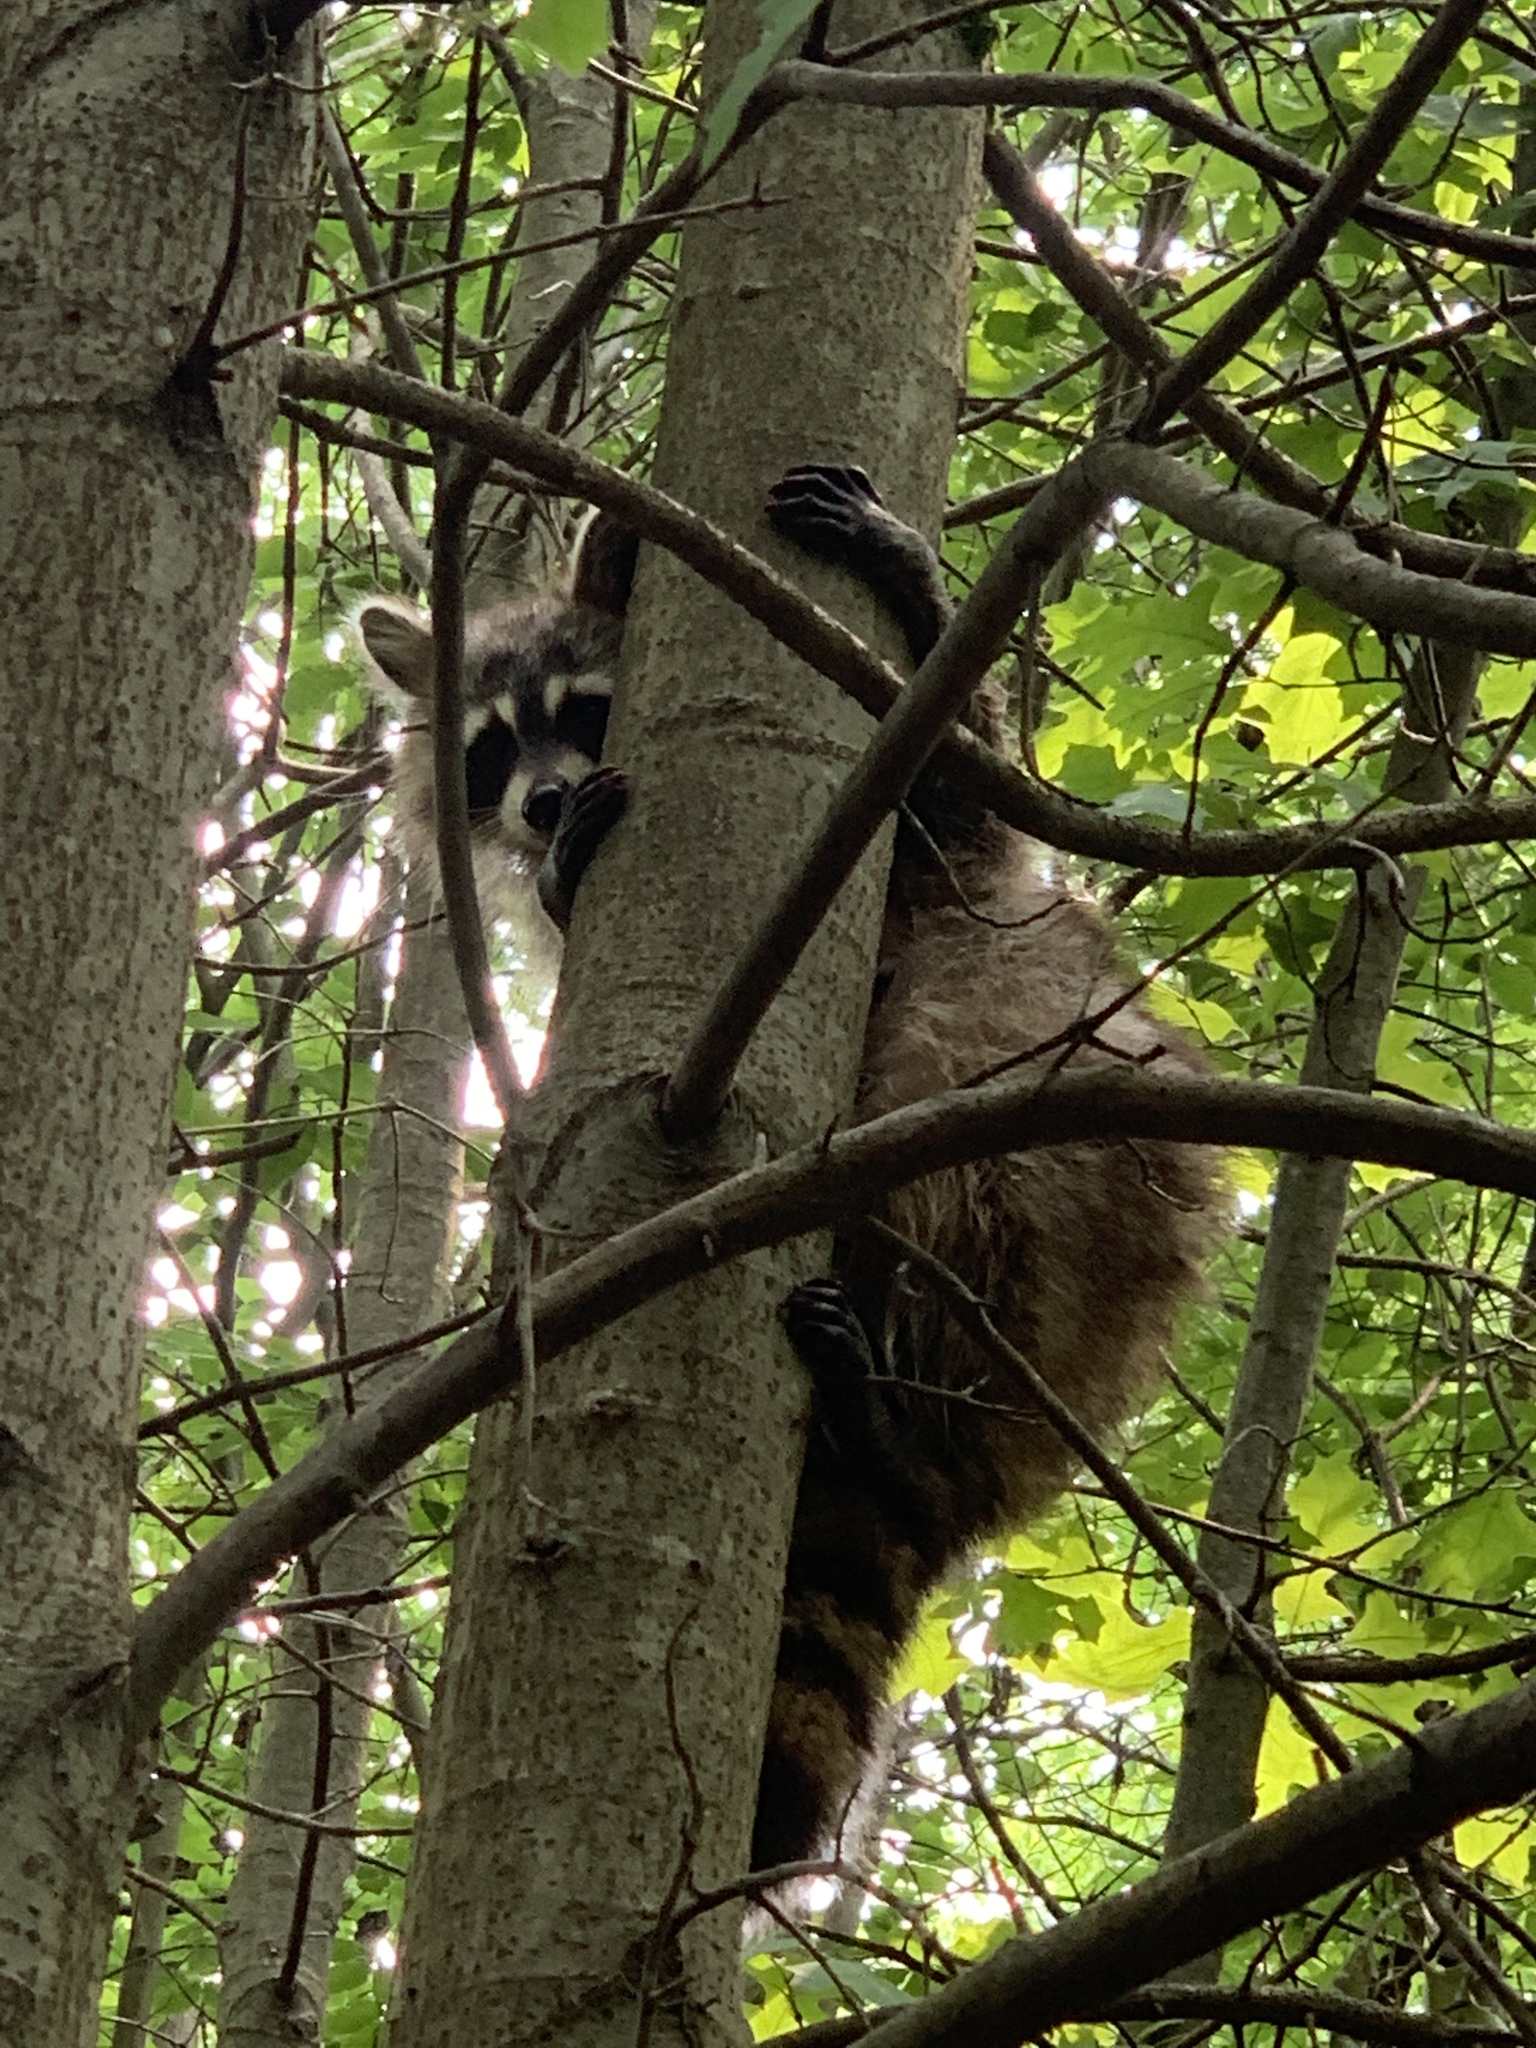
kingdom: Animalia
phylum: Chordata
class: Mammalia
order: Carnivora
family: Procyonidae
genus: Procyon
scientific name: Procyon lotor
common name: Raccoon
